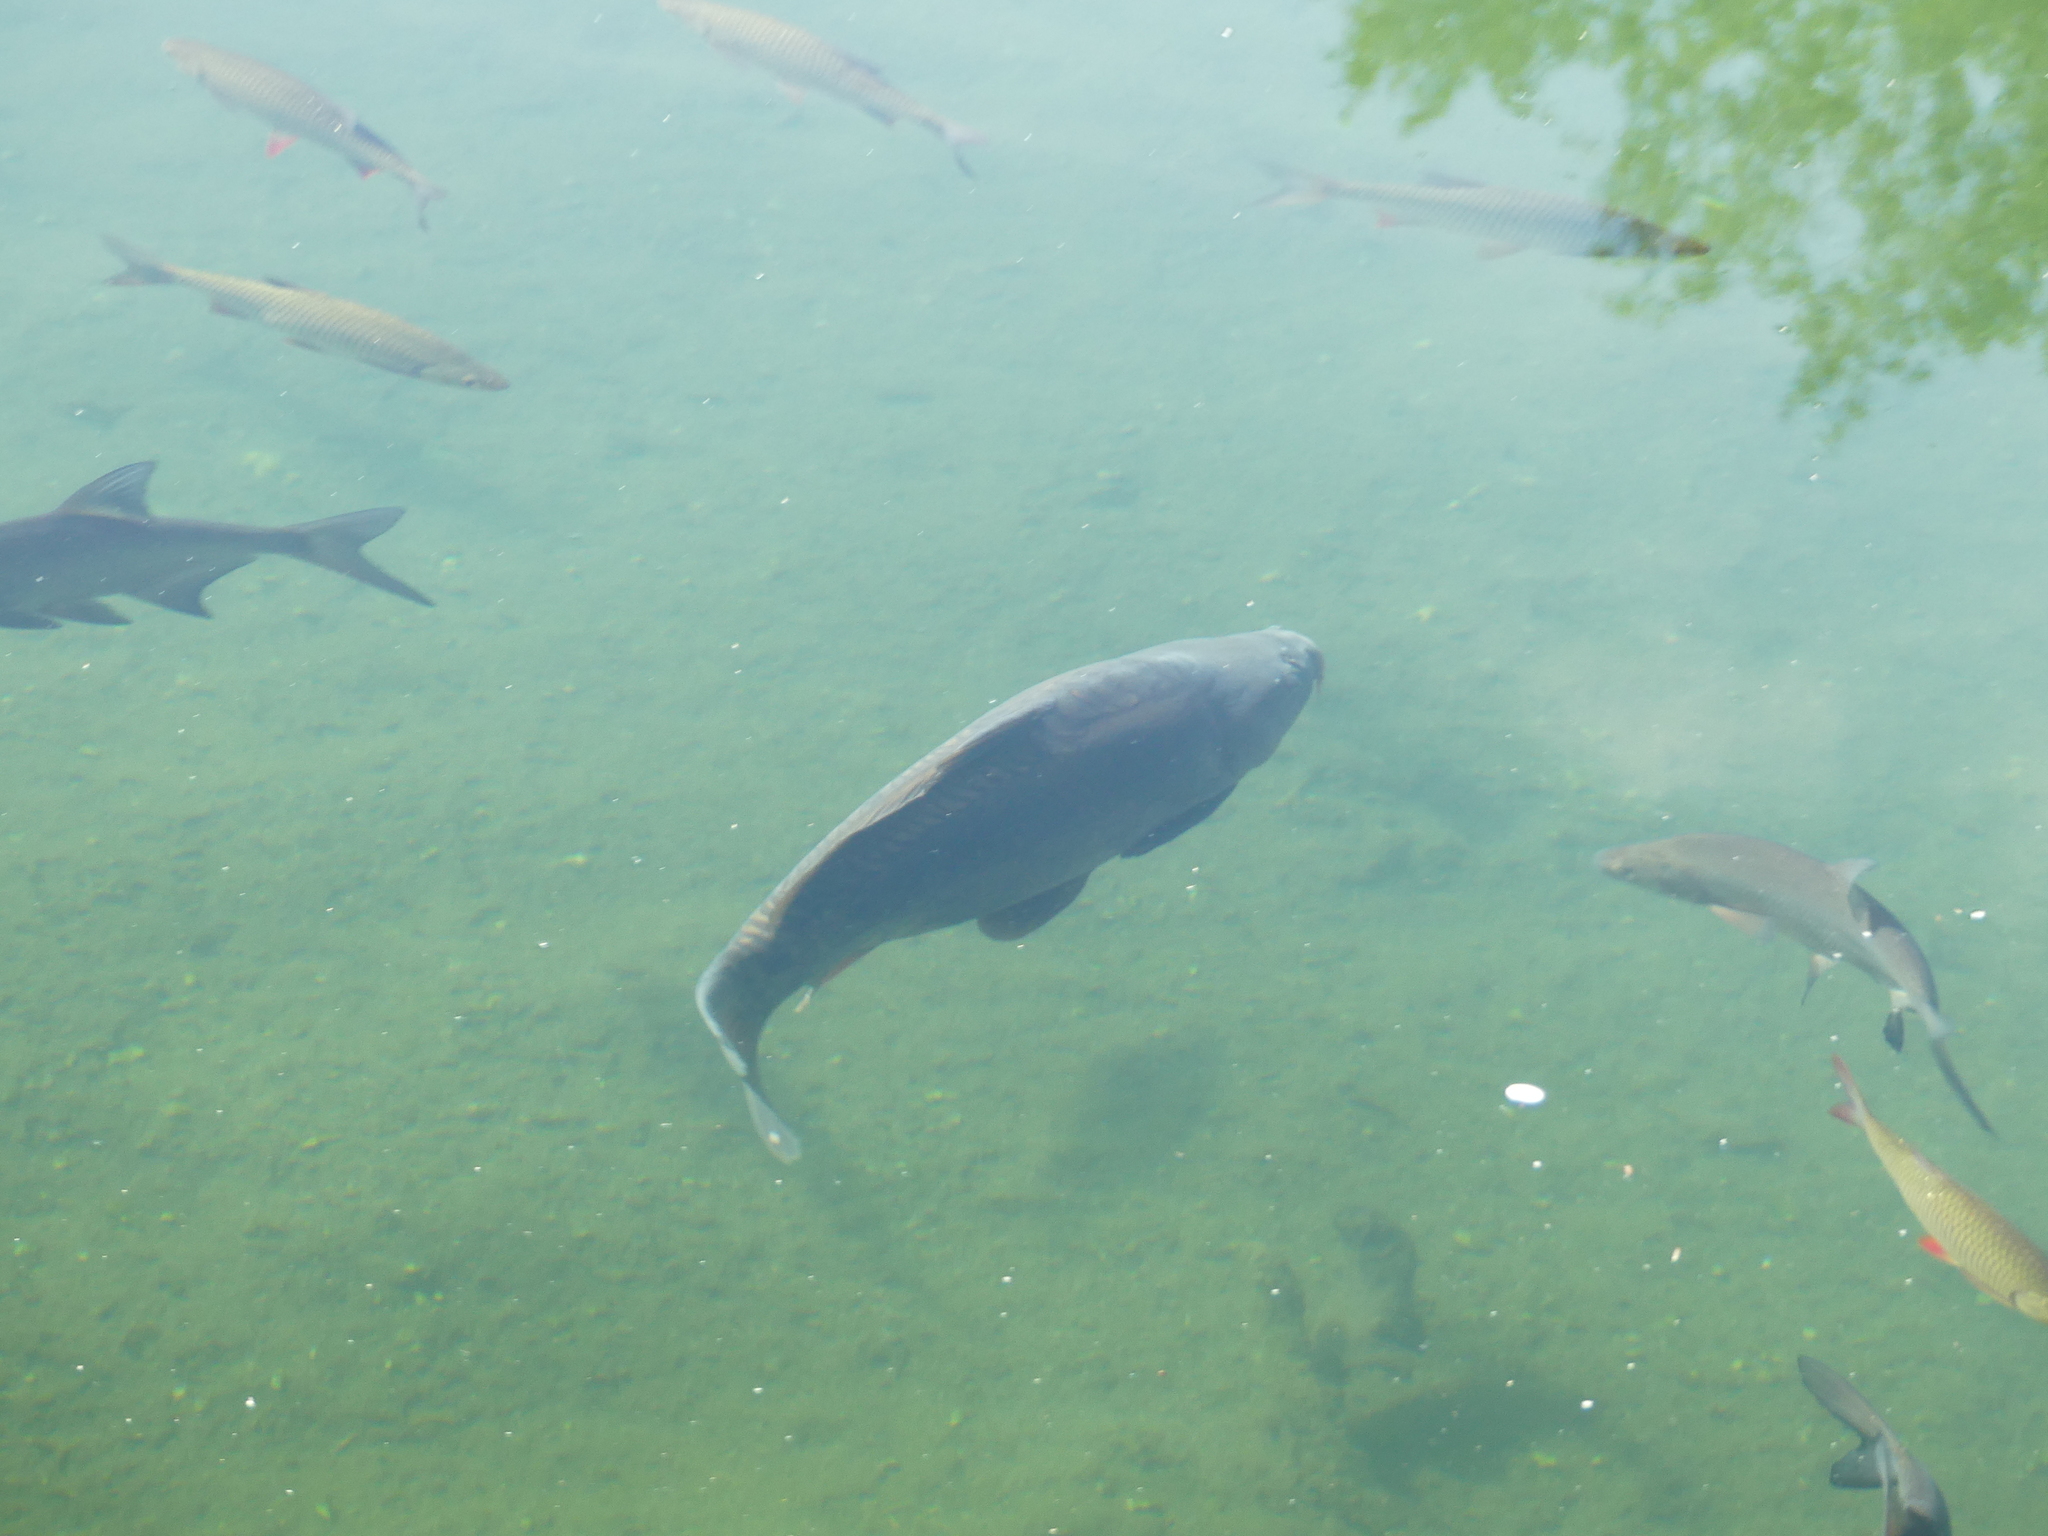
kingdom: Animalia
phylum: Chordata
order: Cypriniformes
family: Cyprinidae
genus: Cyprinus
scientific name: Cyprinus carpio
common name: Common carp
